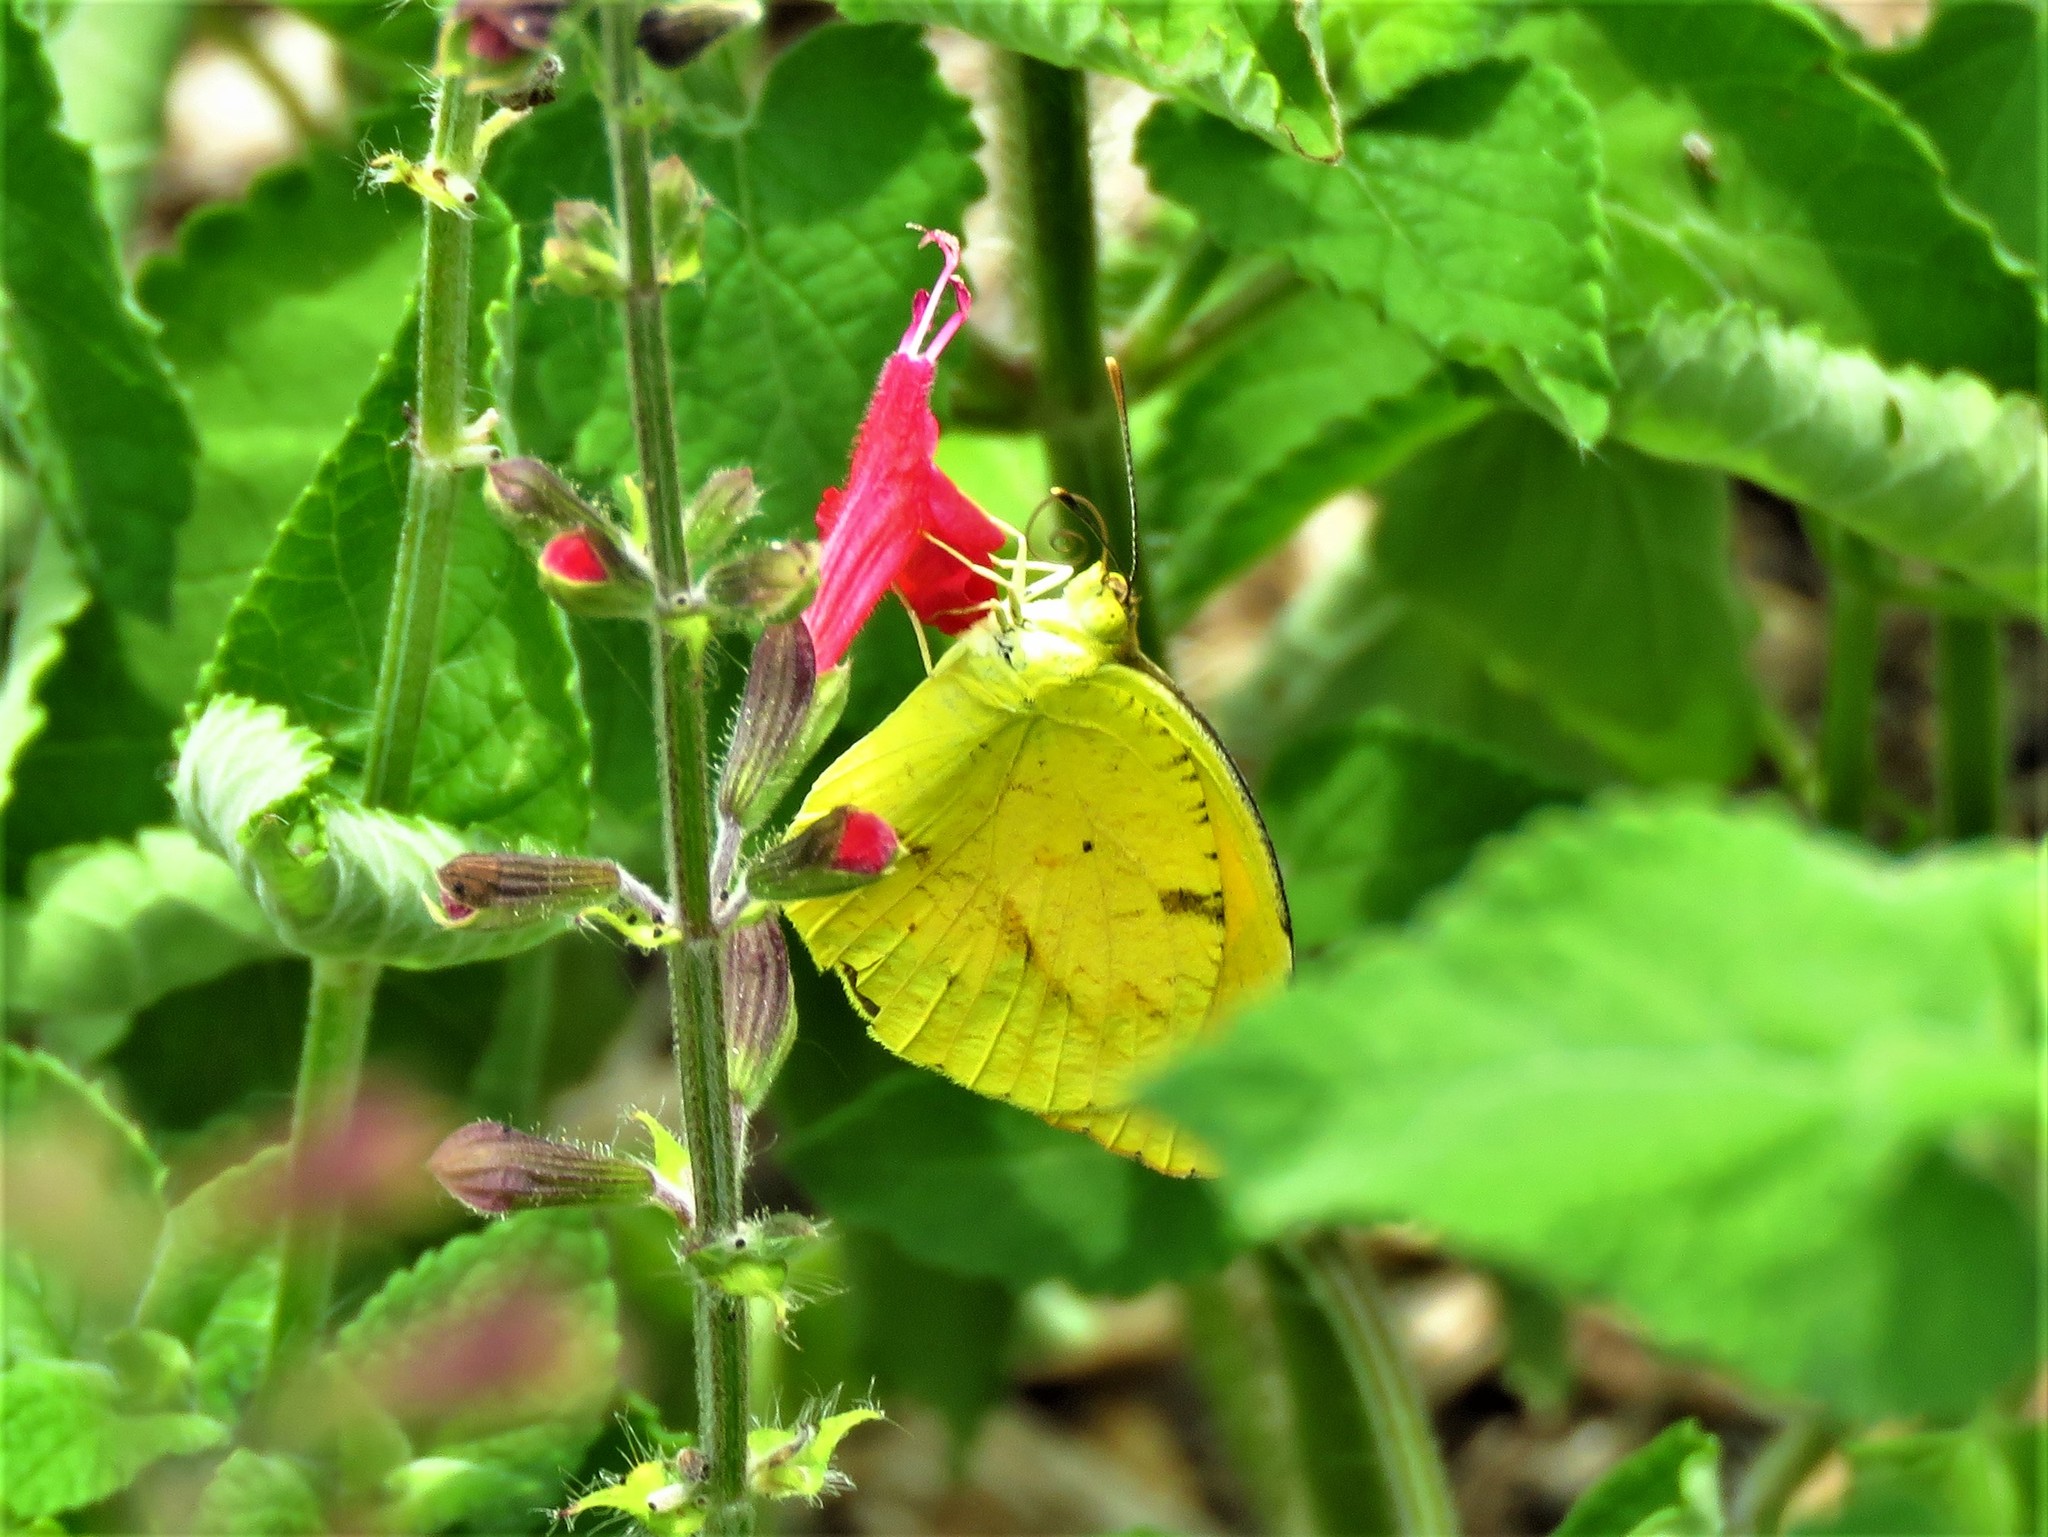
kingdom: Animalia
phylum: Arthropoda
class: Insecta
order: Lepidoptera
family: Pieridae
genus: Abaeis
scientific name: Abaeis nicippe
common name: Sleepy orange
